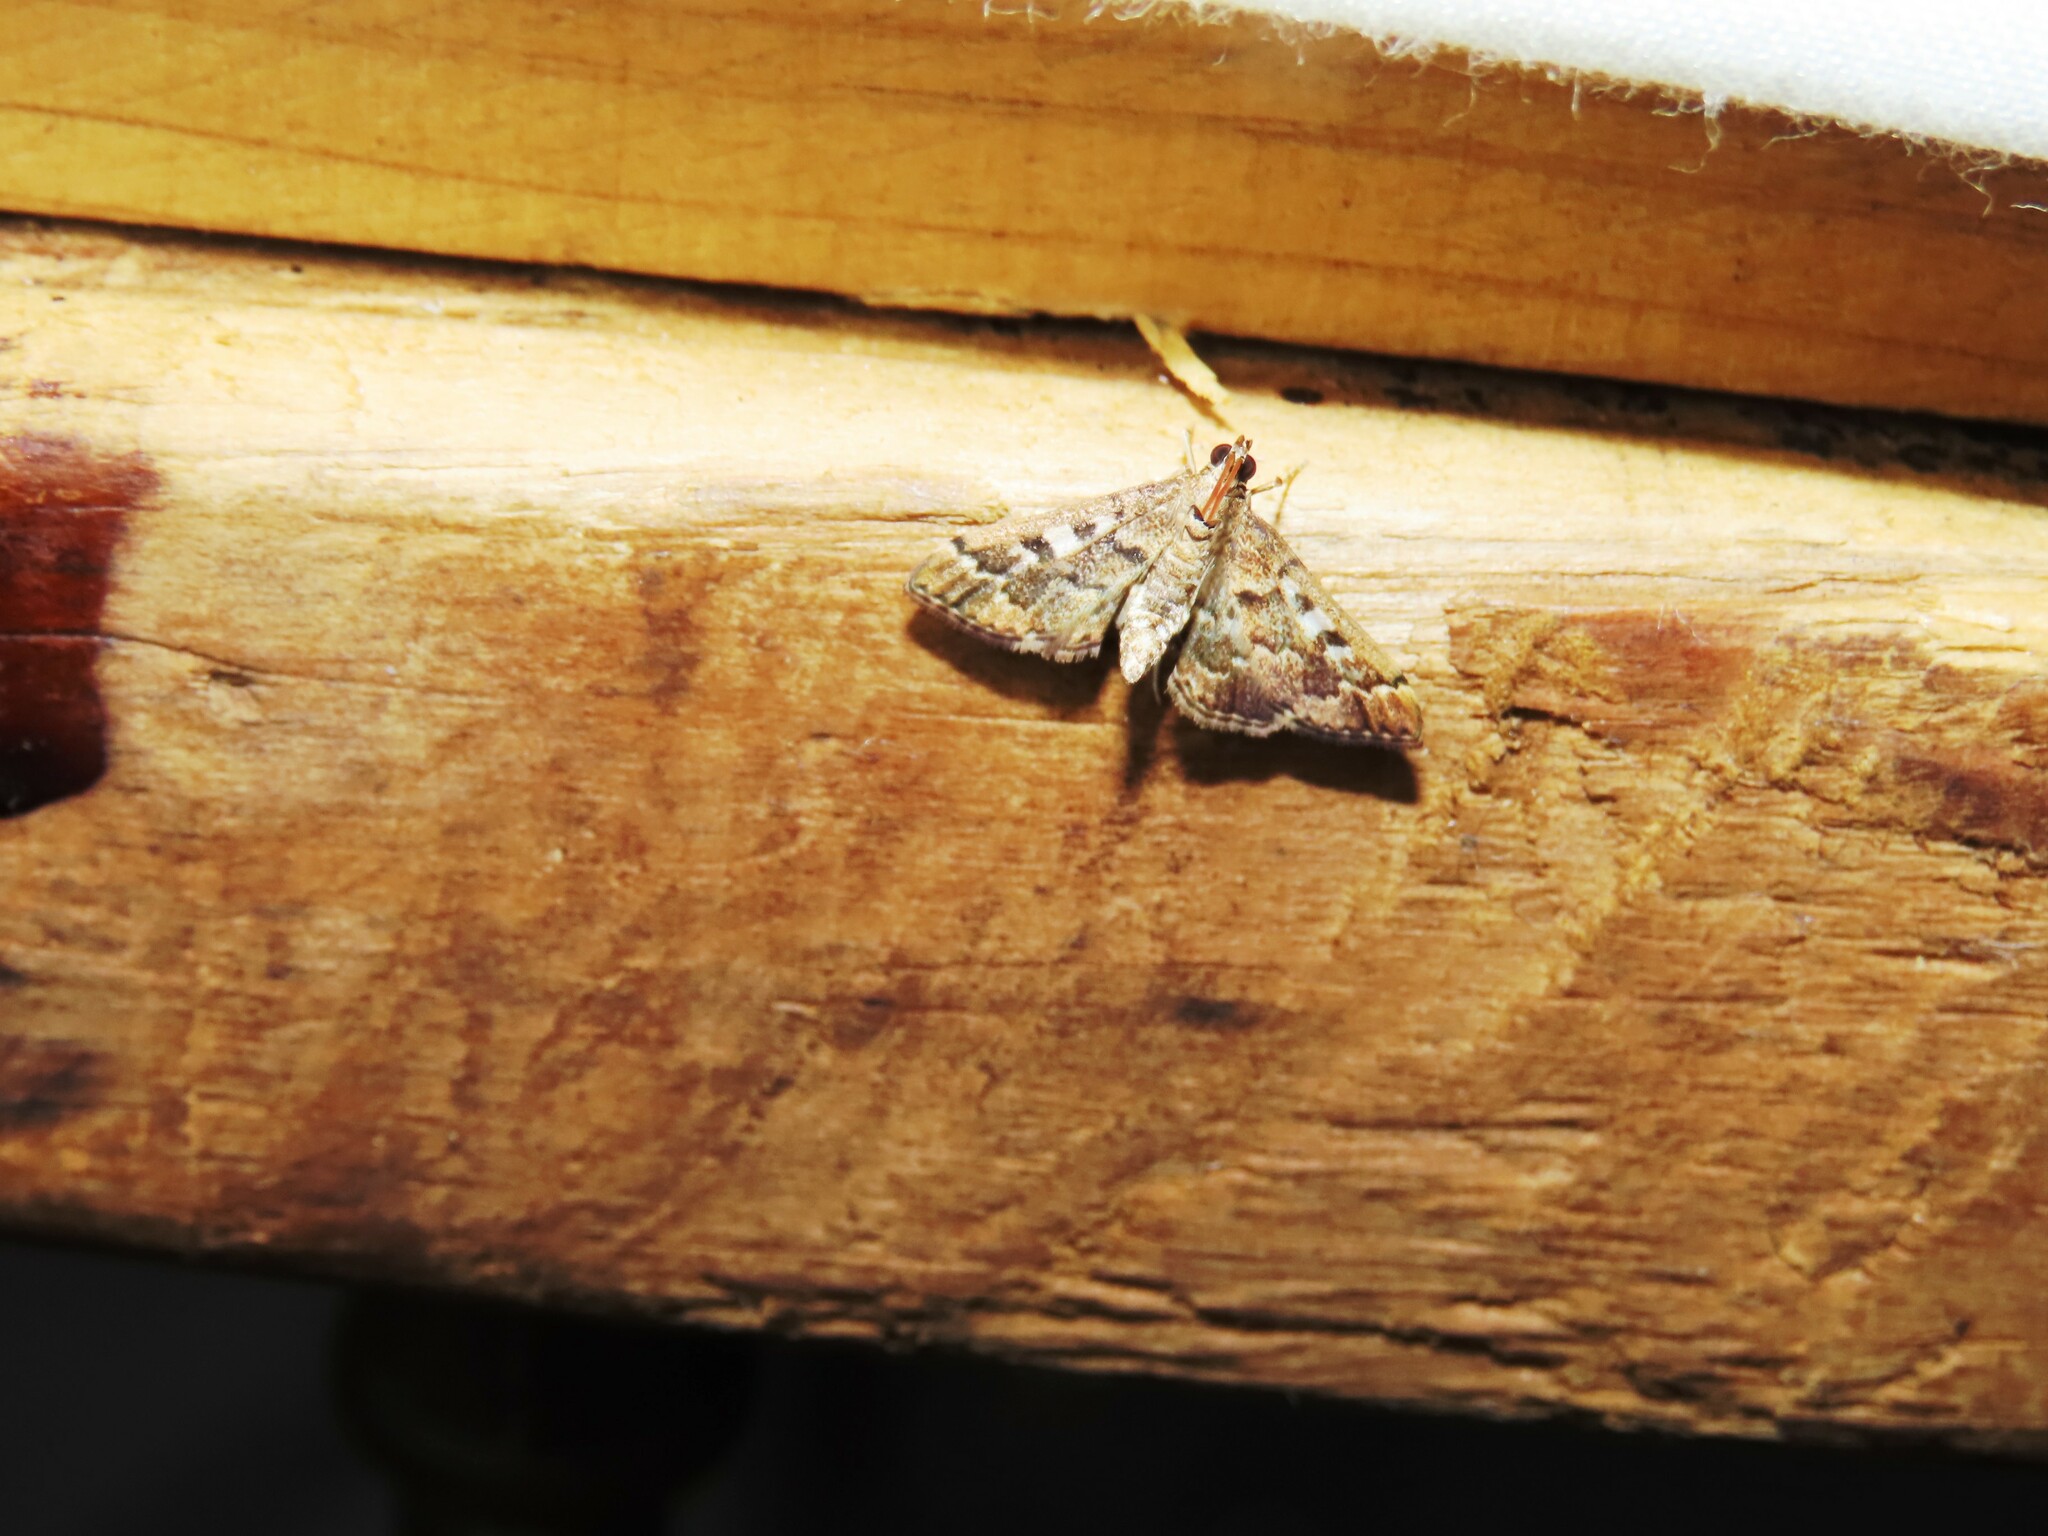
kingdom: Animalia
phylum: Arthropoda
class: Insecta
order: Lepidoptera
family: Crambidae
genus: Nacoleia
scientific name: Nacoleia rhoeoalis
